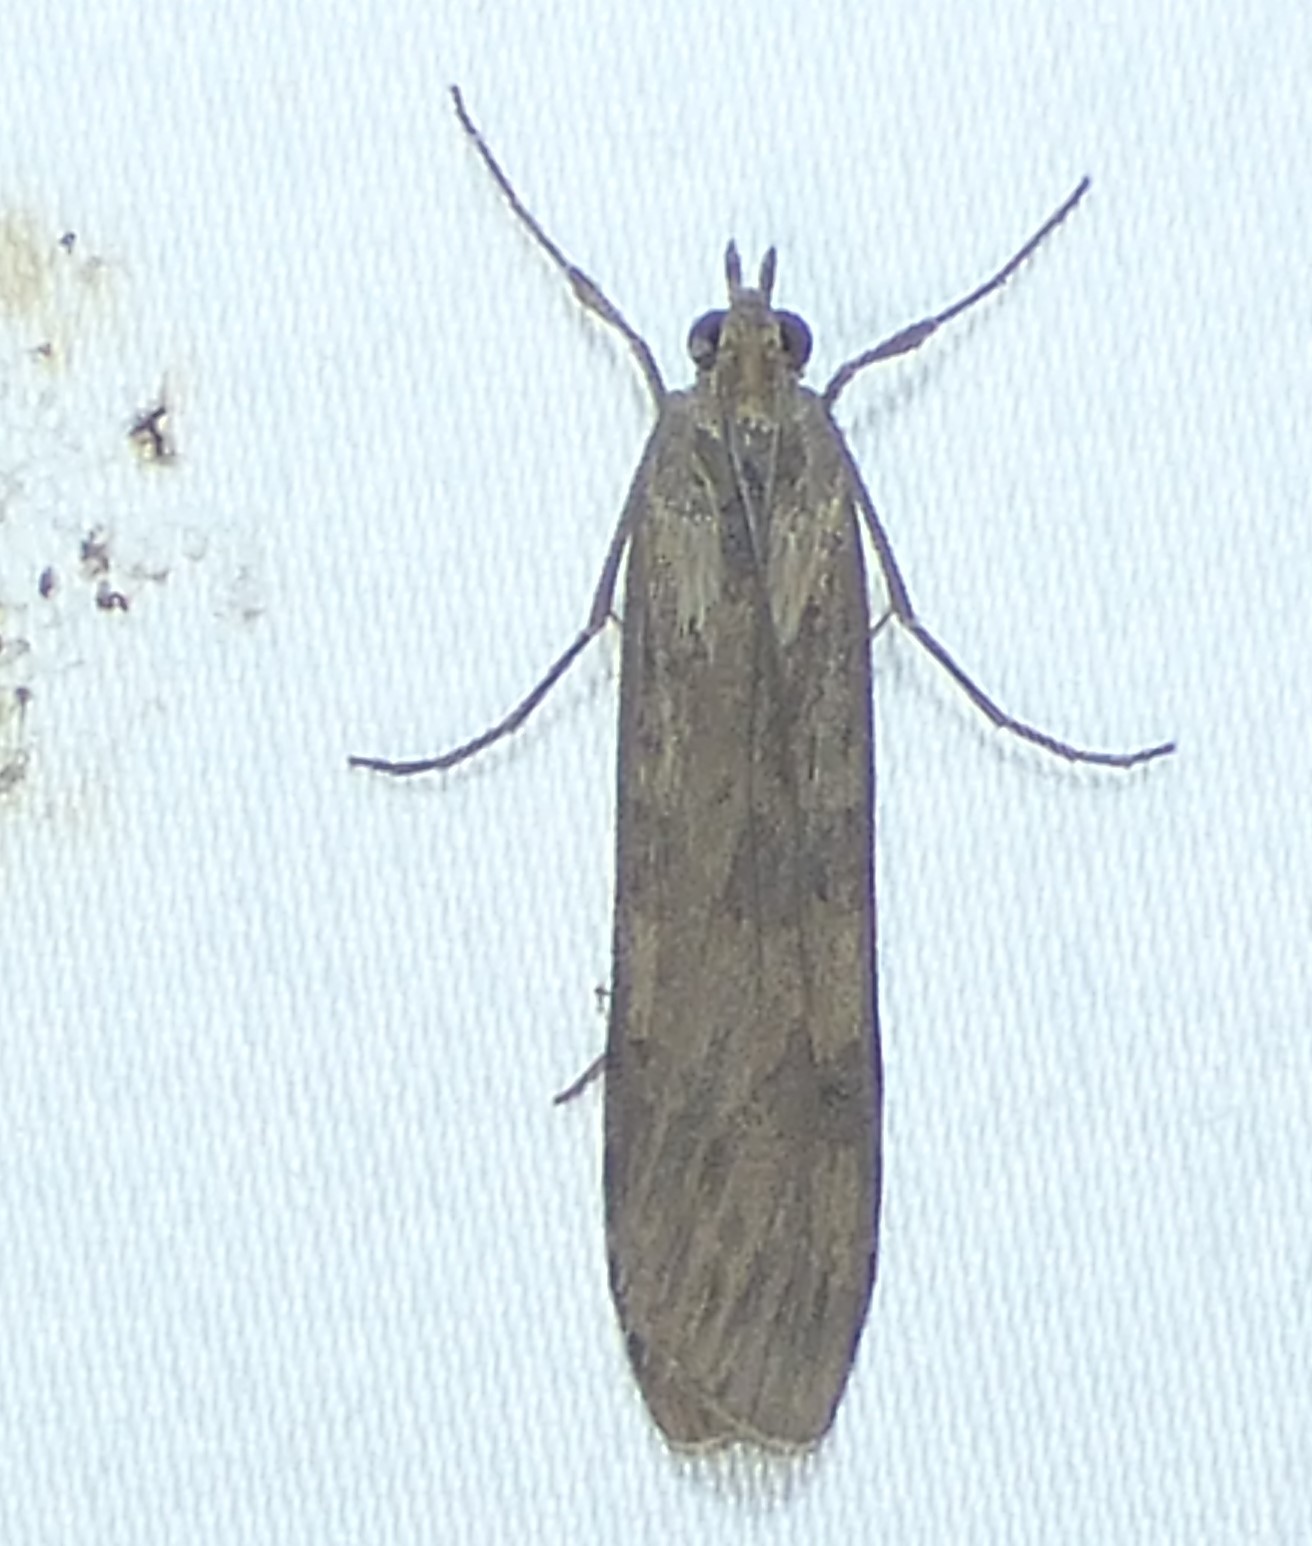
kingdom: Animalia
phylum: Arthropoda
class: Insecta
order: Lepidoptera
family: Crambidae
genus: Nomophila
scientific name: Nomophila nearctica
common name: American rush veneer
